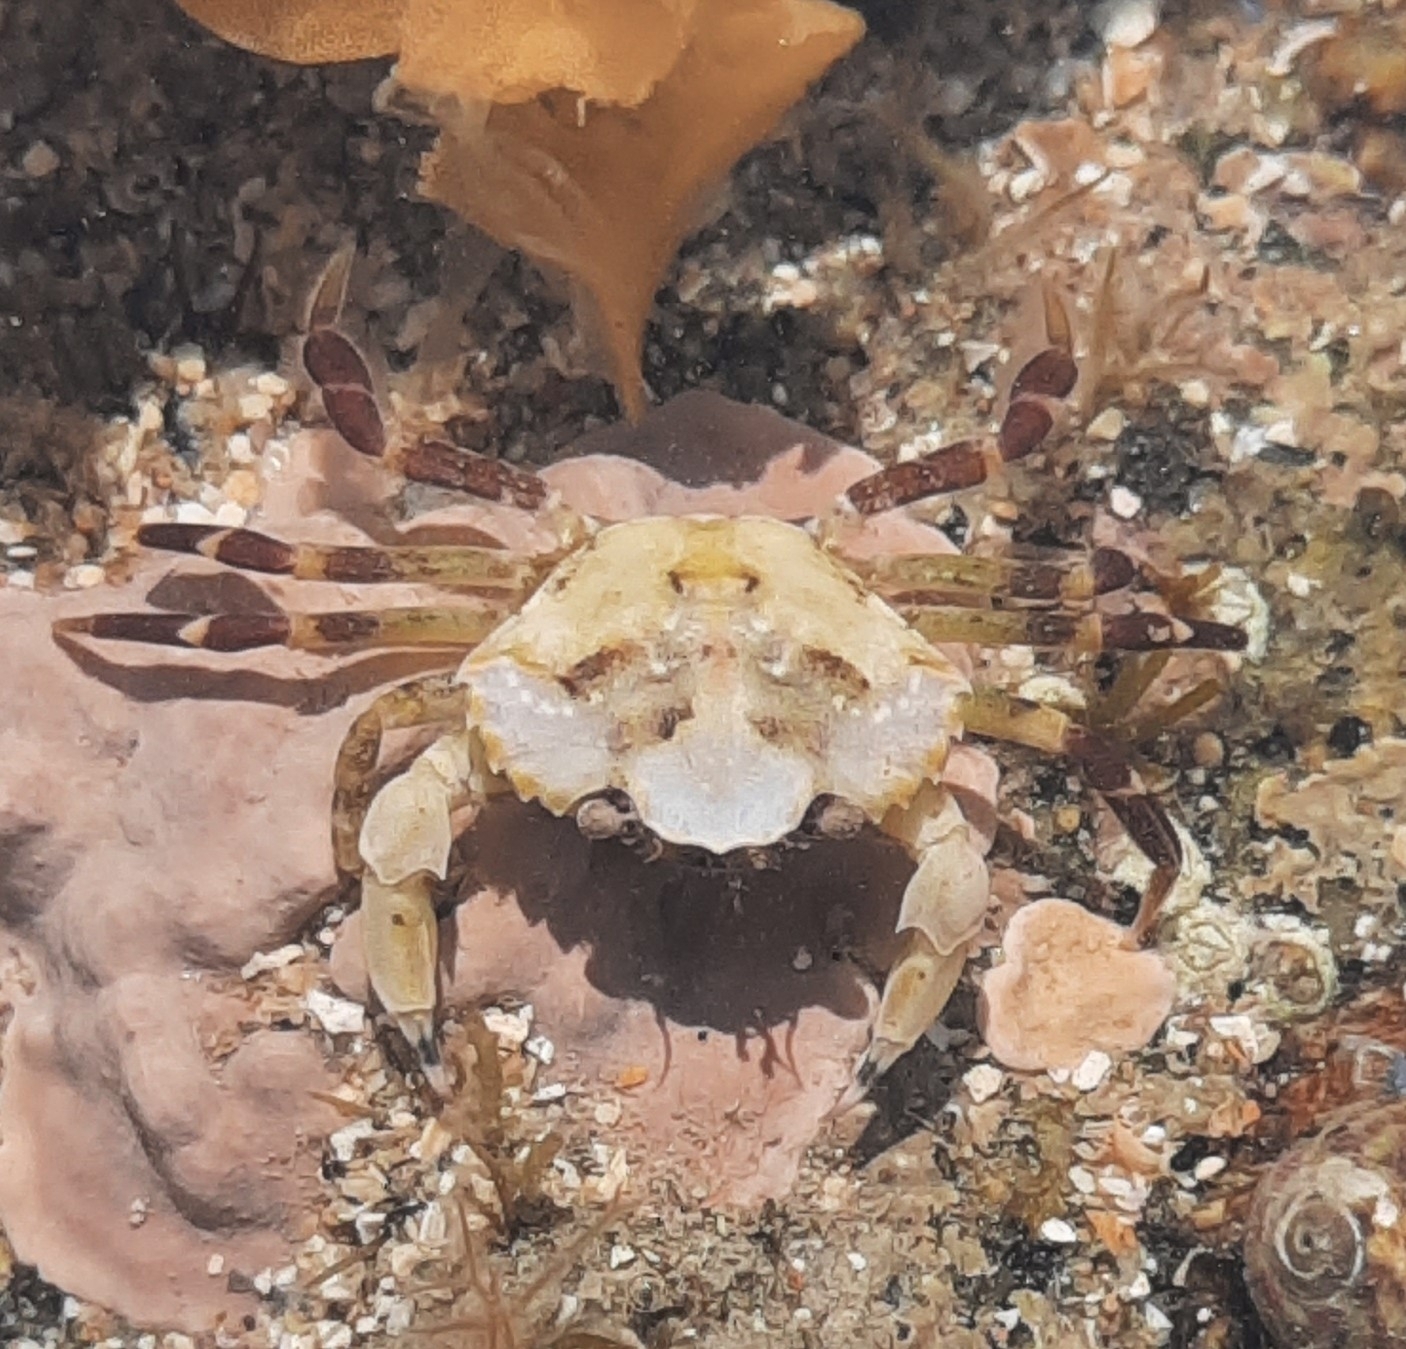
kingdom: Animalia
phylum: Arthropoda
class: Malacostraca
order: Decapoda
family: Carcinidae
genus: Carcinus
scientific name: Carcinus maenas
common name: European green crab
